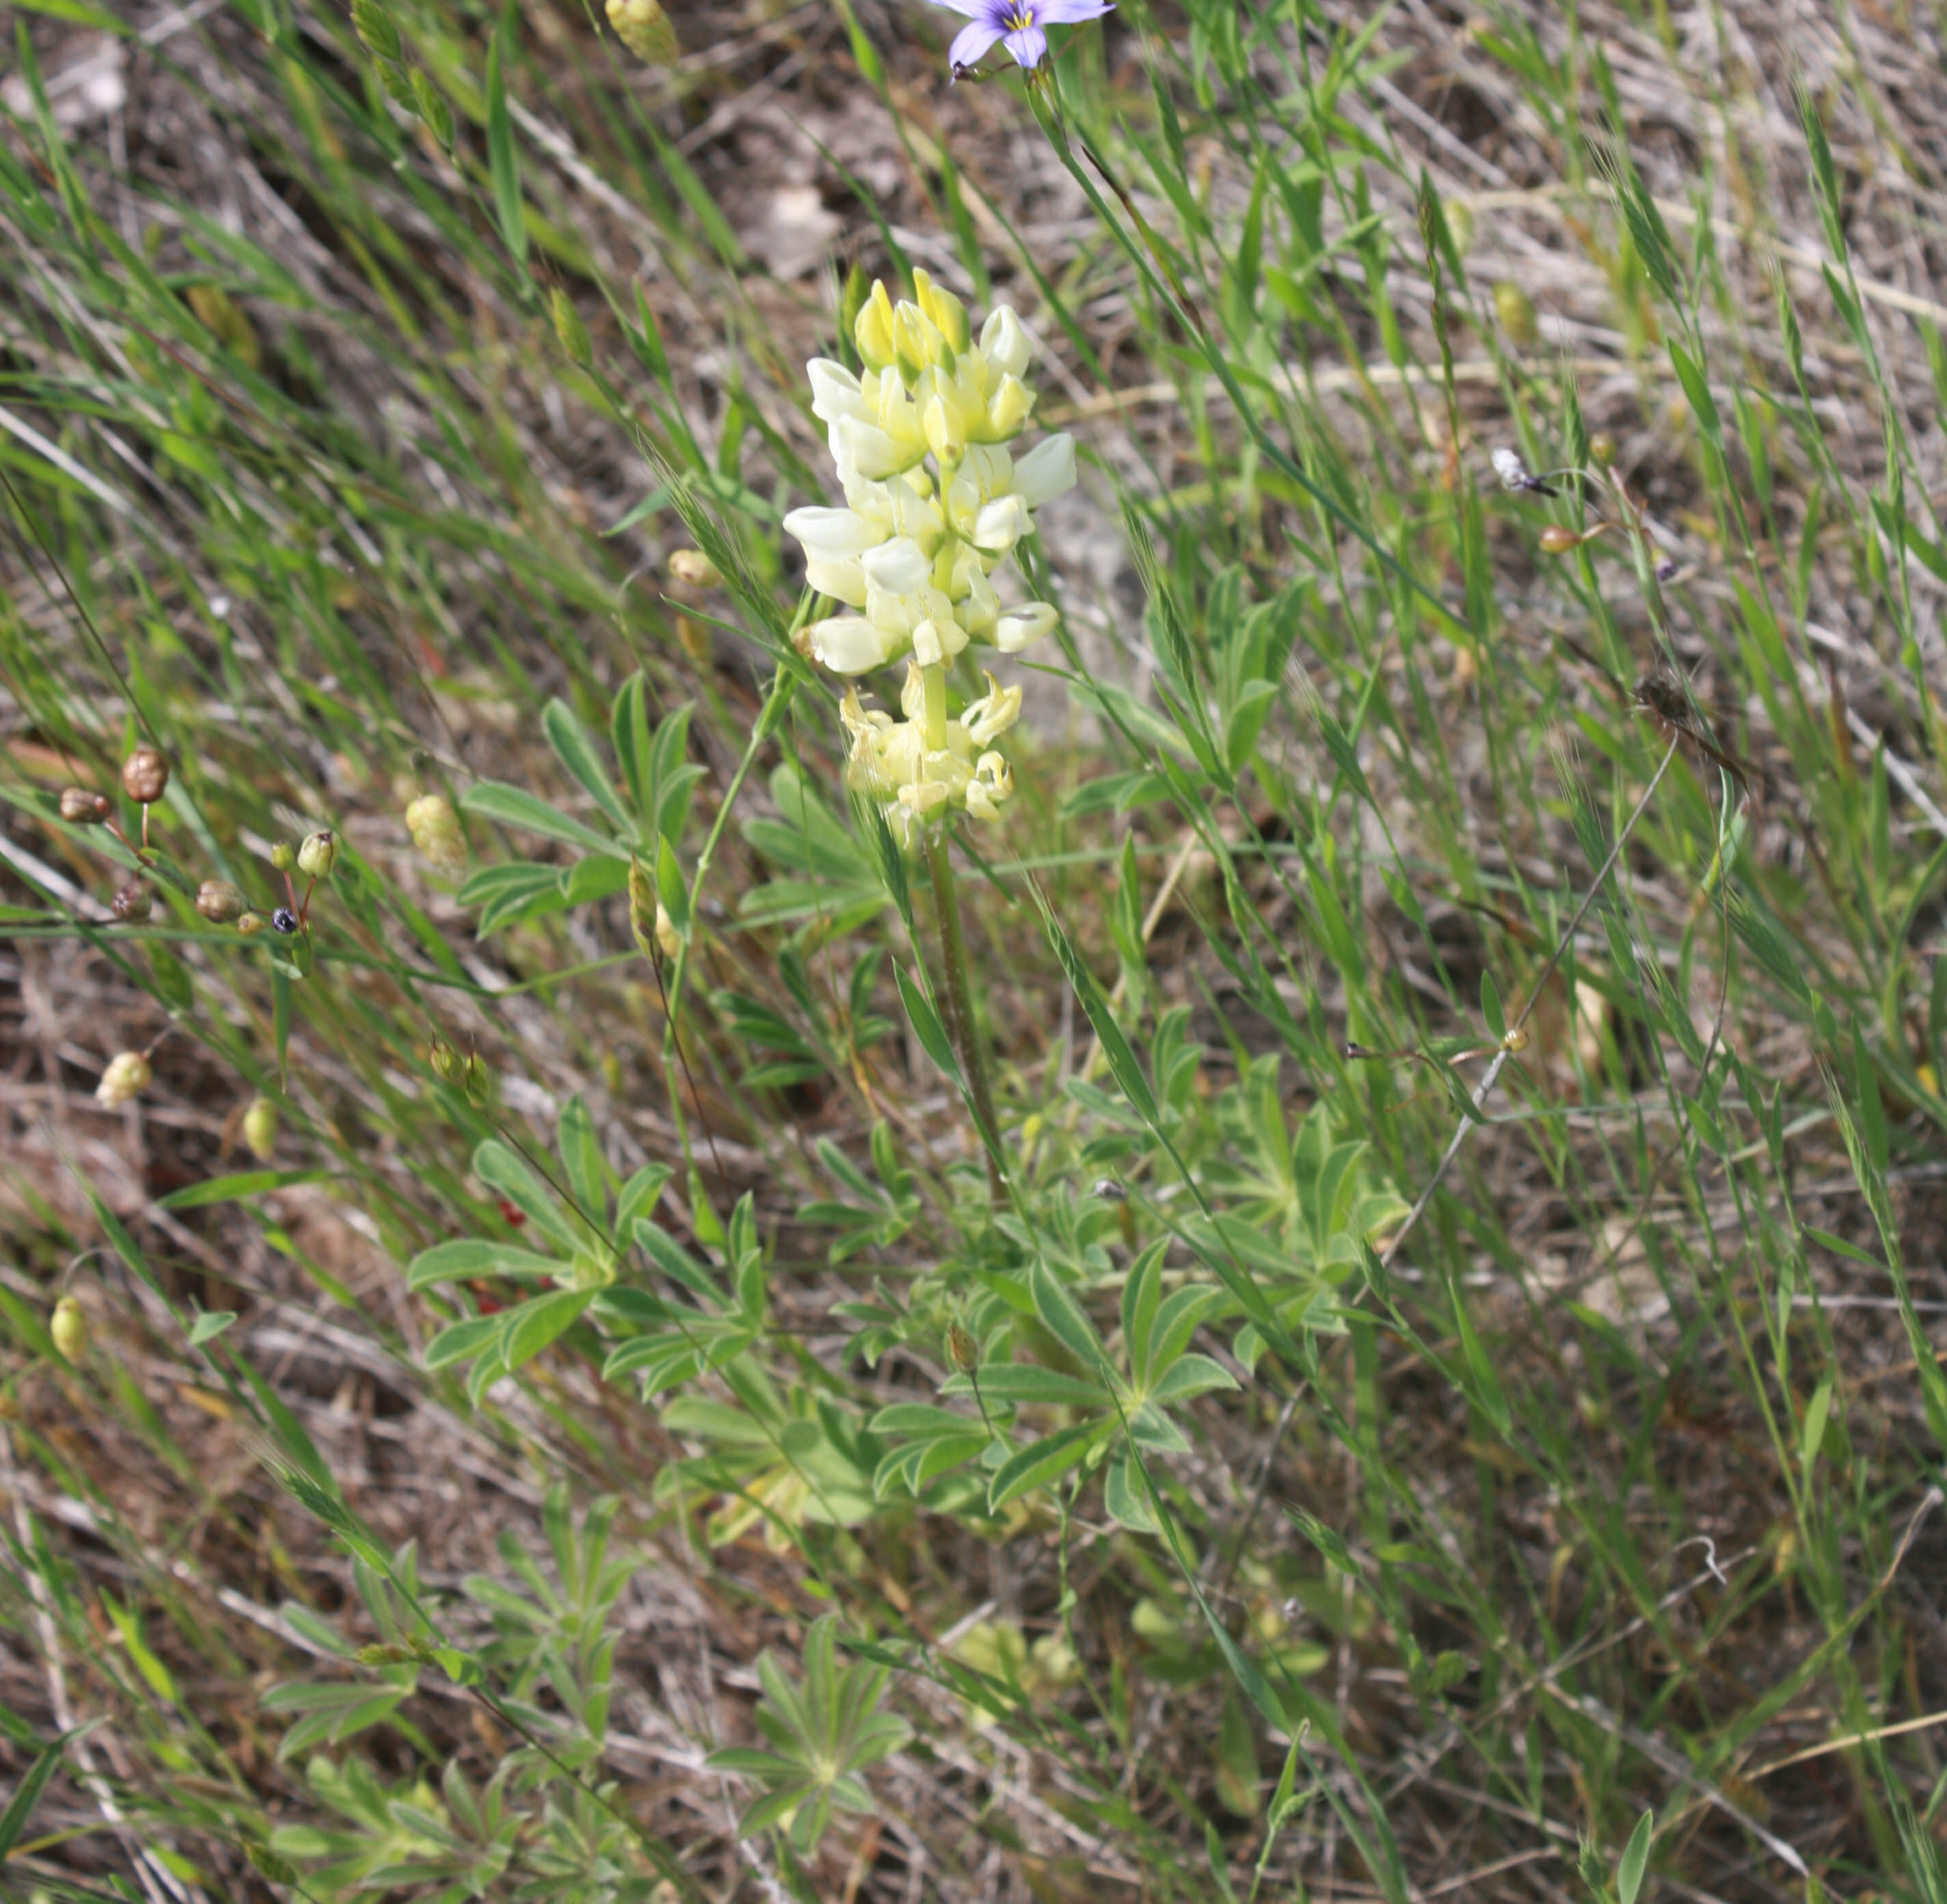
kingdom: Plantae
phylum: Tracheophyta
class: Magnoliopsida
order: Fabales
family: Fabaceae
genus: Lupinus
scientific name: Lupinus microcarpus
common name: Chick lupine
